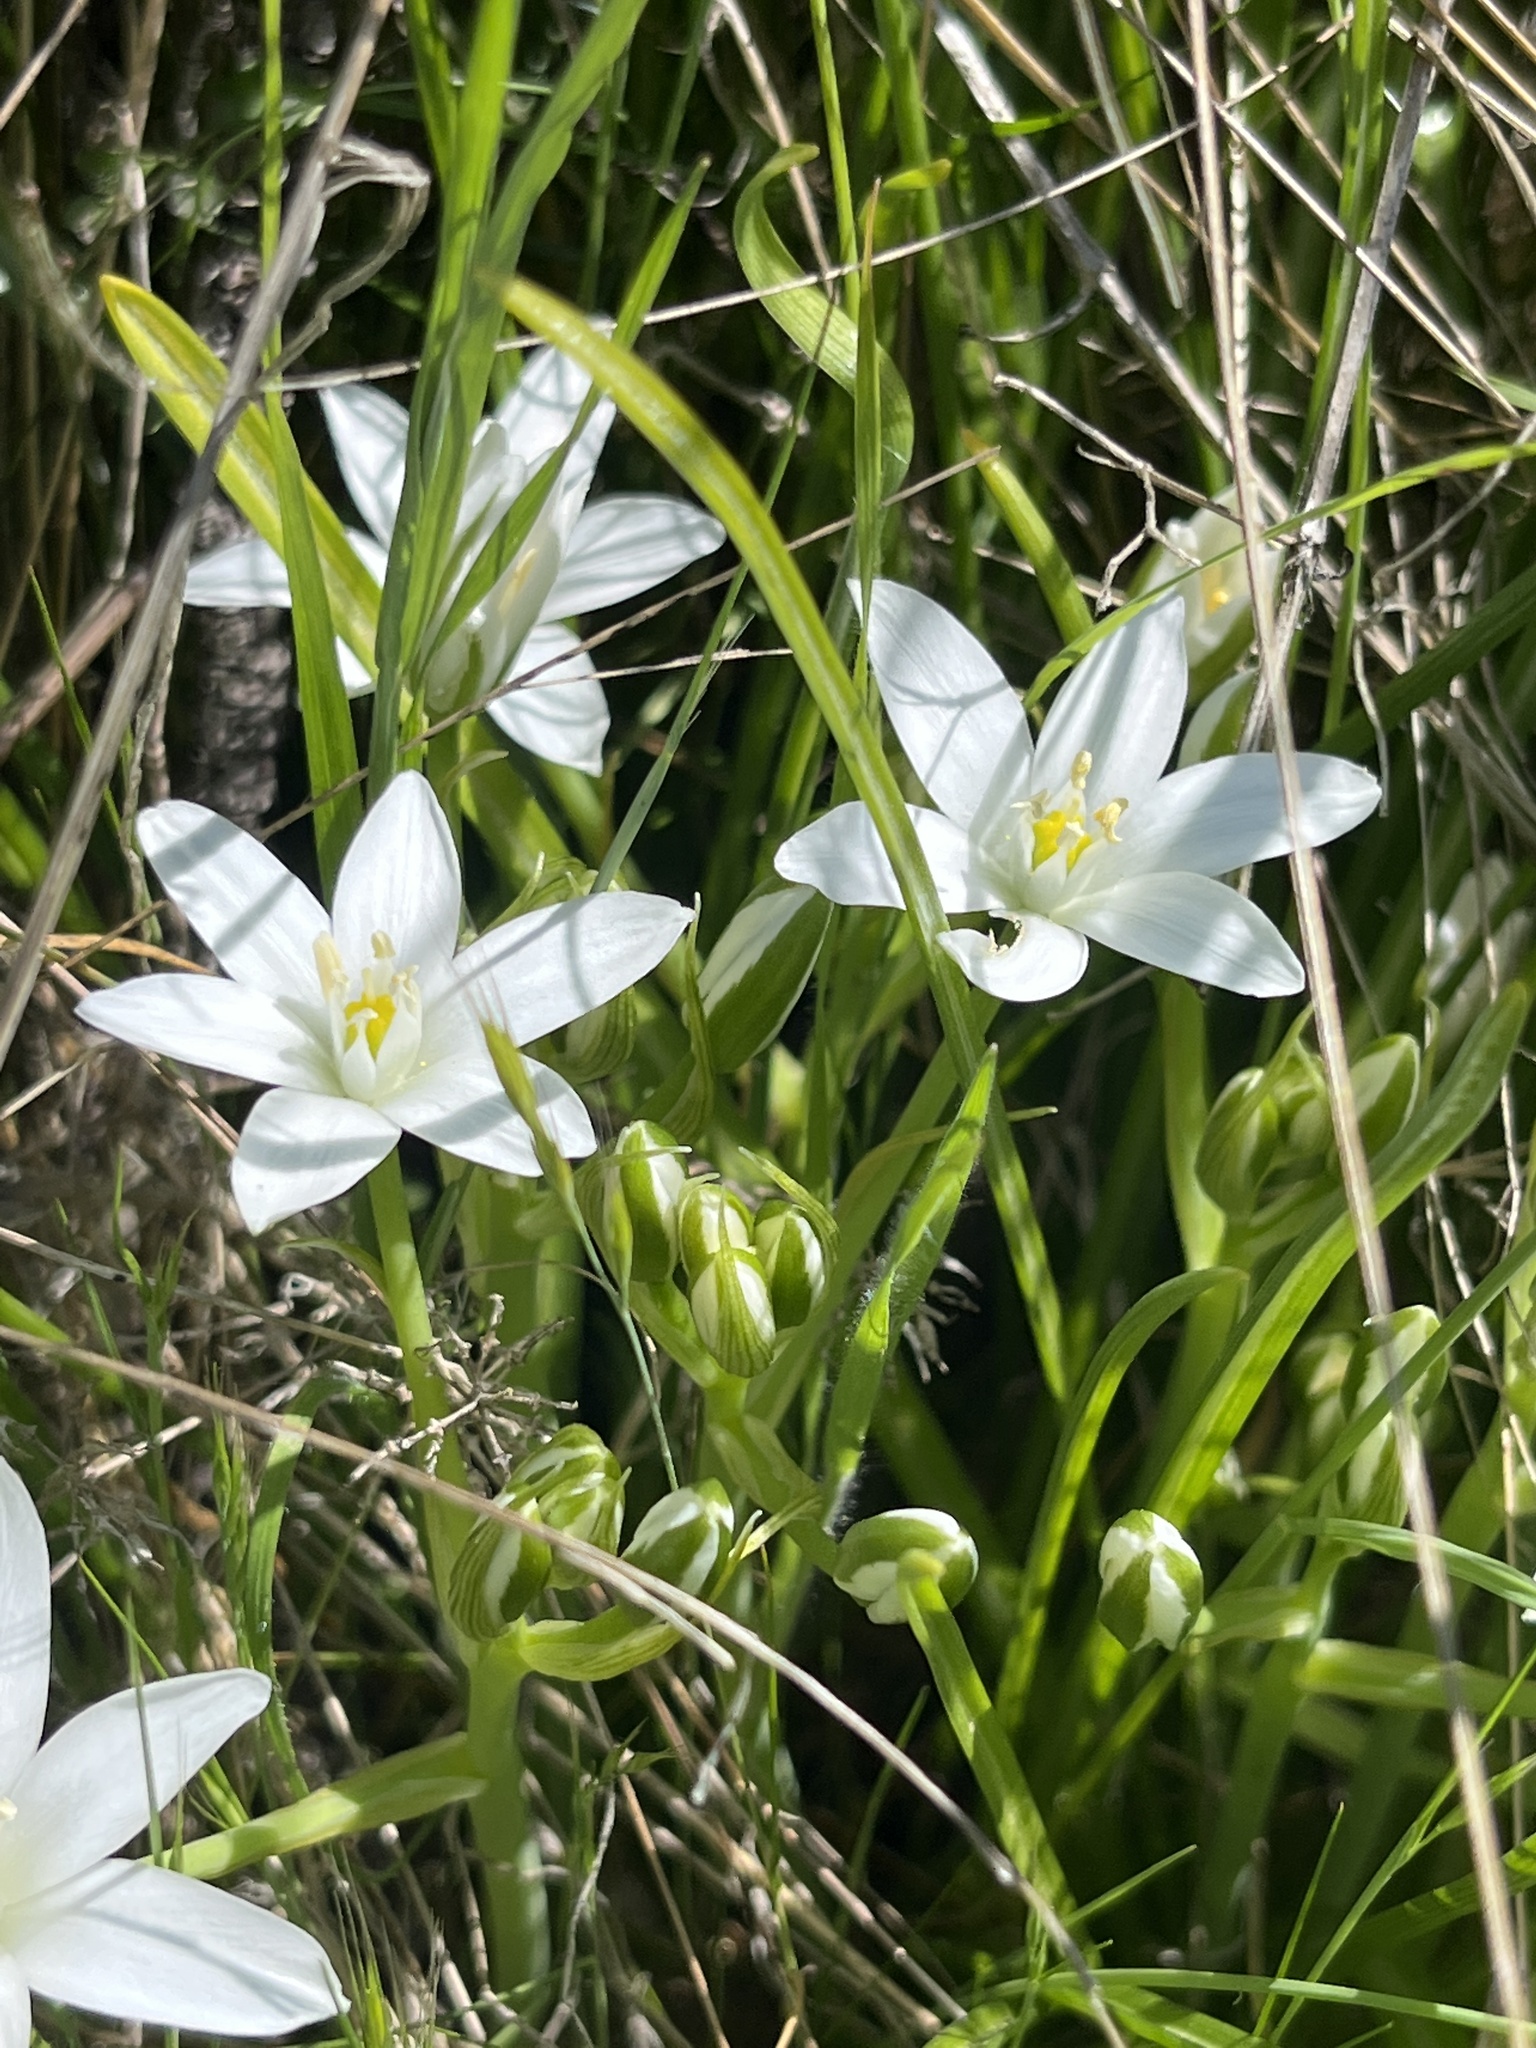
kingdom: Plantae
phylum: Tracheophyta
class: Liliopsida
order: Asparagales
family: Asparagaceae
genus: Ornithogalum
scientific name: Ornithogalum umbellatum
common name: Garden star-of-bethlehem
